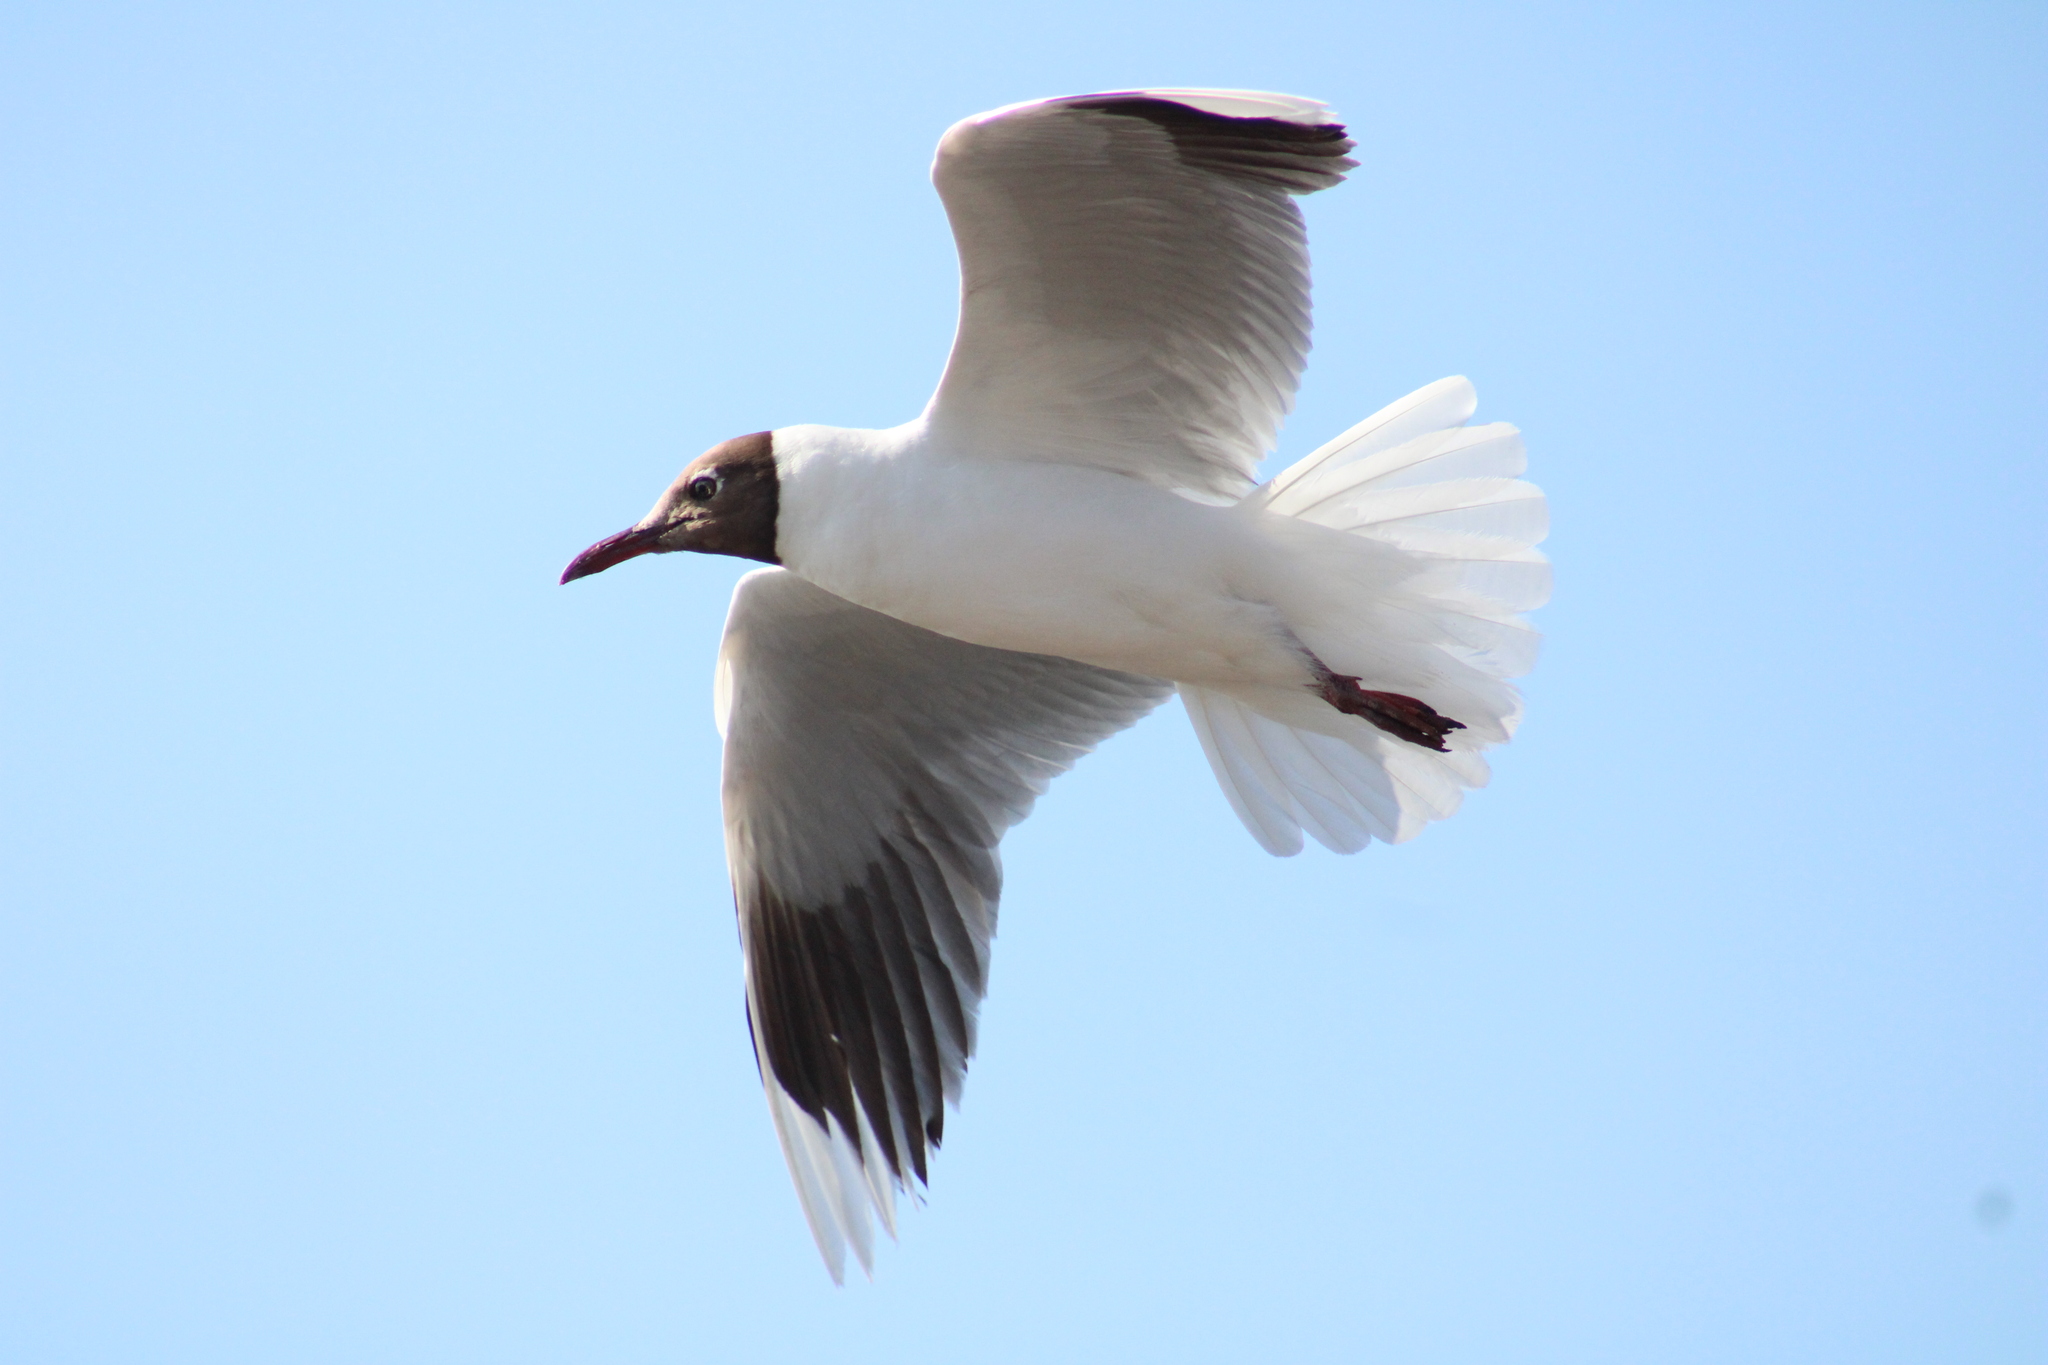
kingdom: Animalia
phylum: Chordata
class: Aves
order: Charadriiformes
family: Laridae
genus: Chroicocephalus
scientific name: Chroicocephalus maculipennis
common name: Brown-hooded gull
